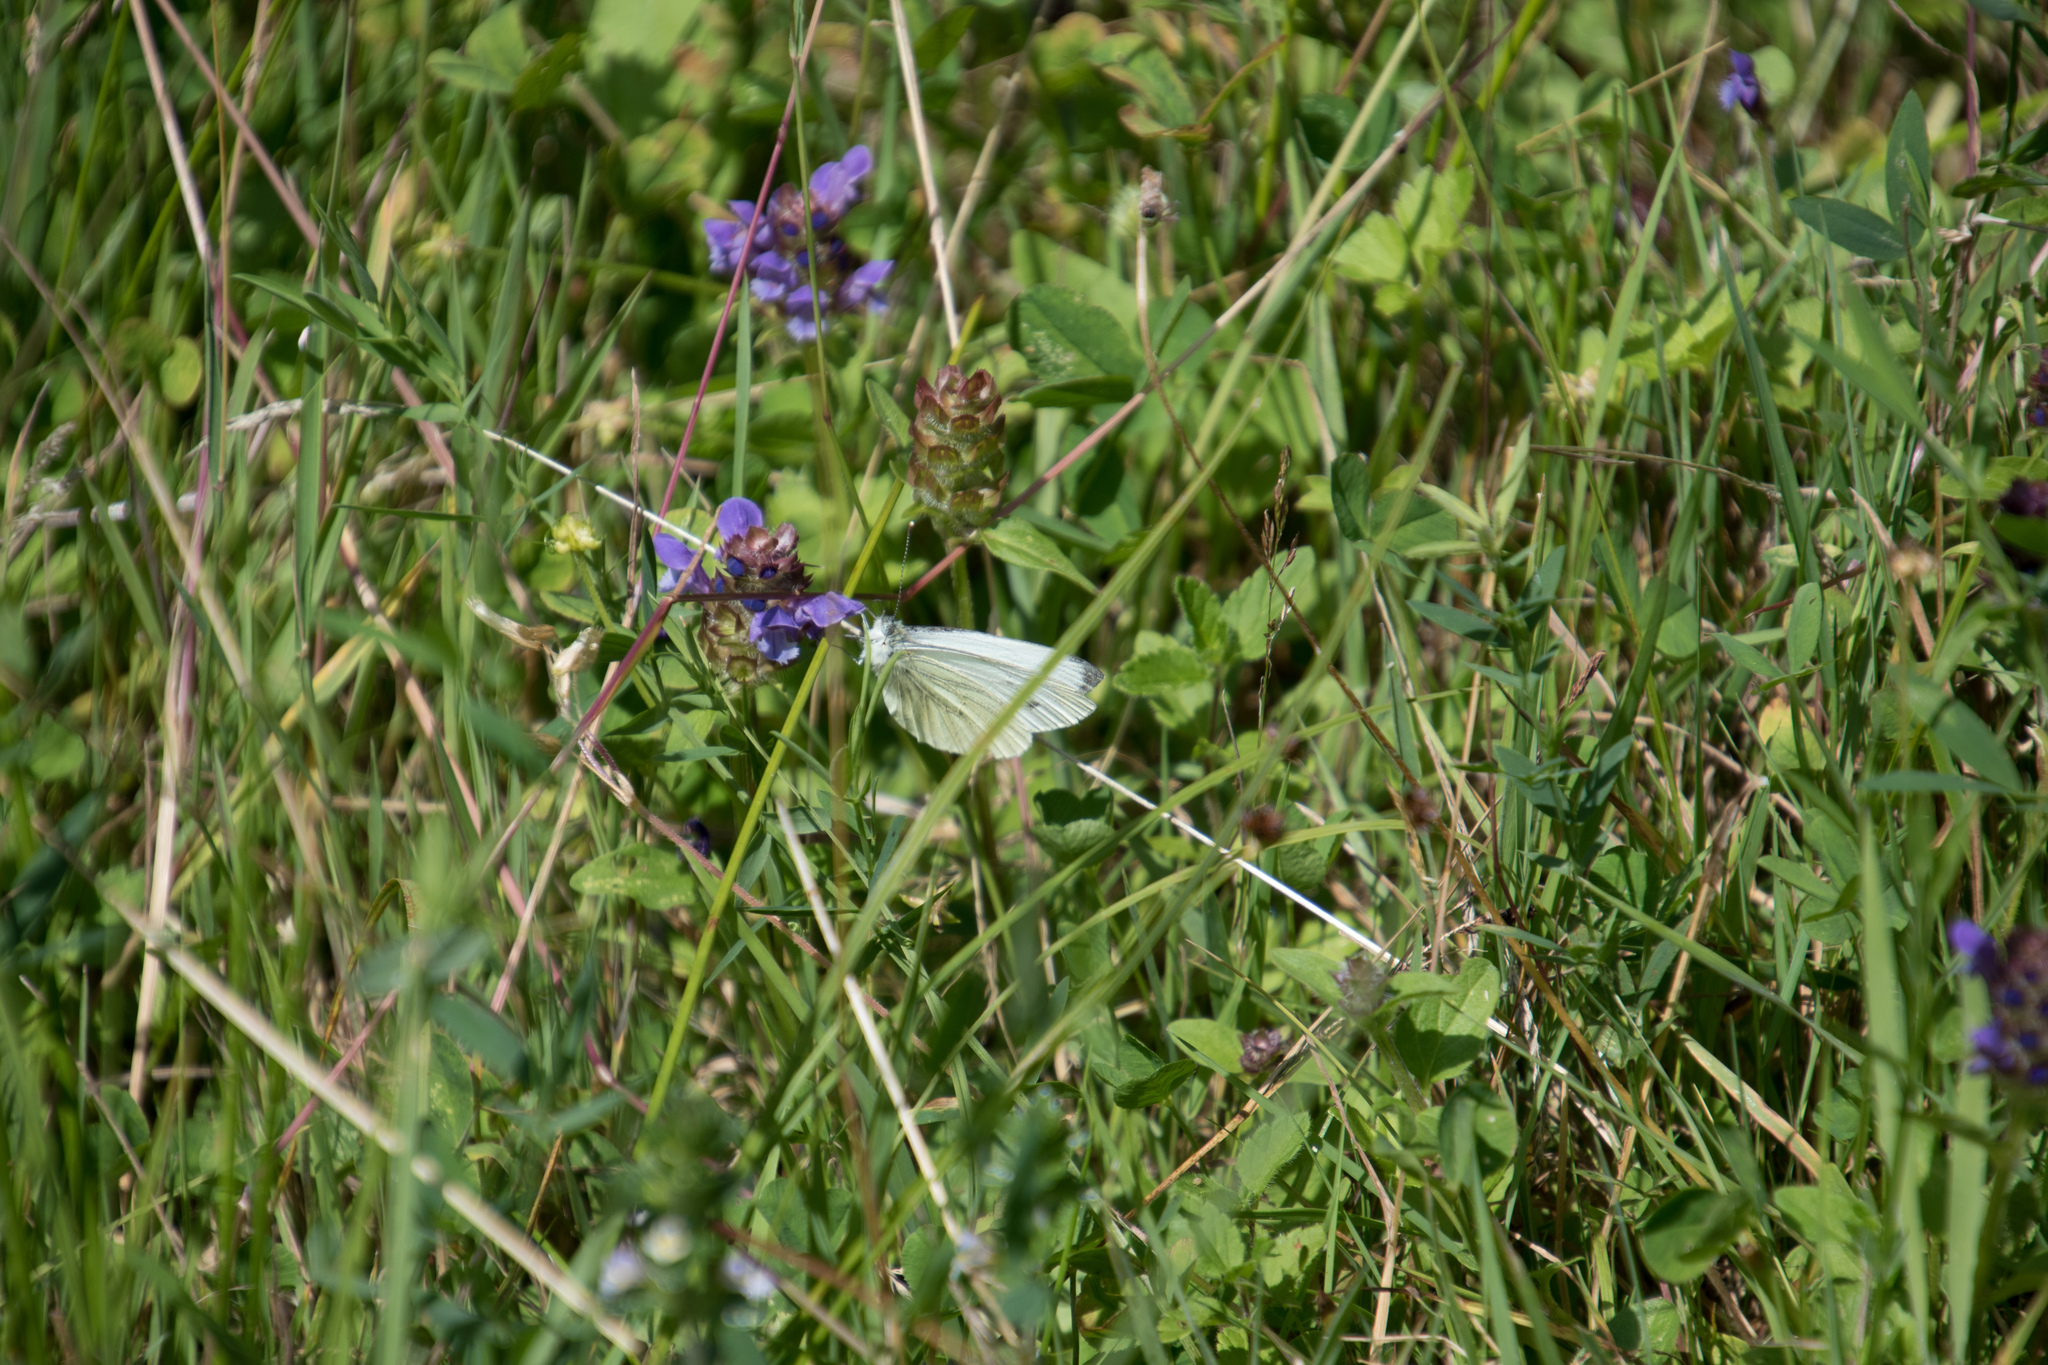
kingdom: Animalia
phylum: Arthropoda
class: Insecta
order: Lepidoptera
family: Pieridae
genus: Pieris
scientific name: Pieris napi
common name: Green-veined white
